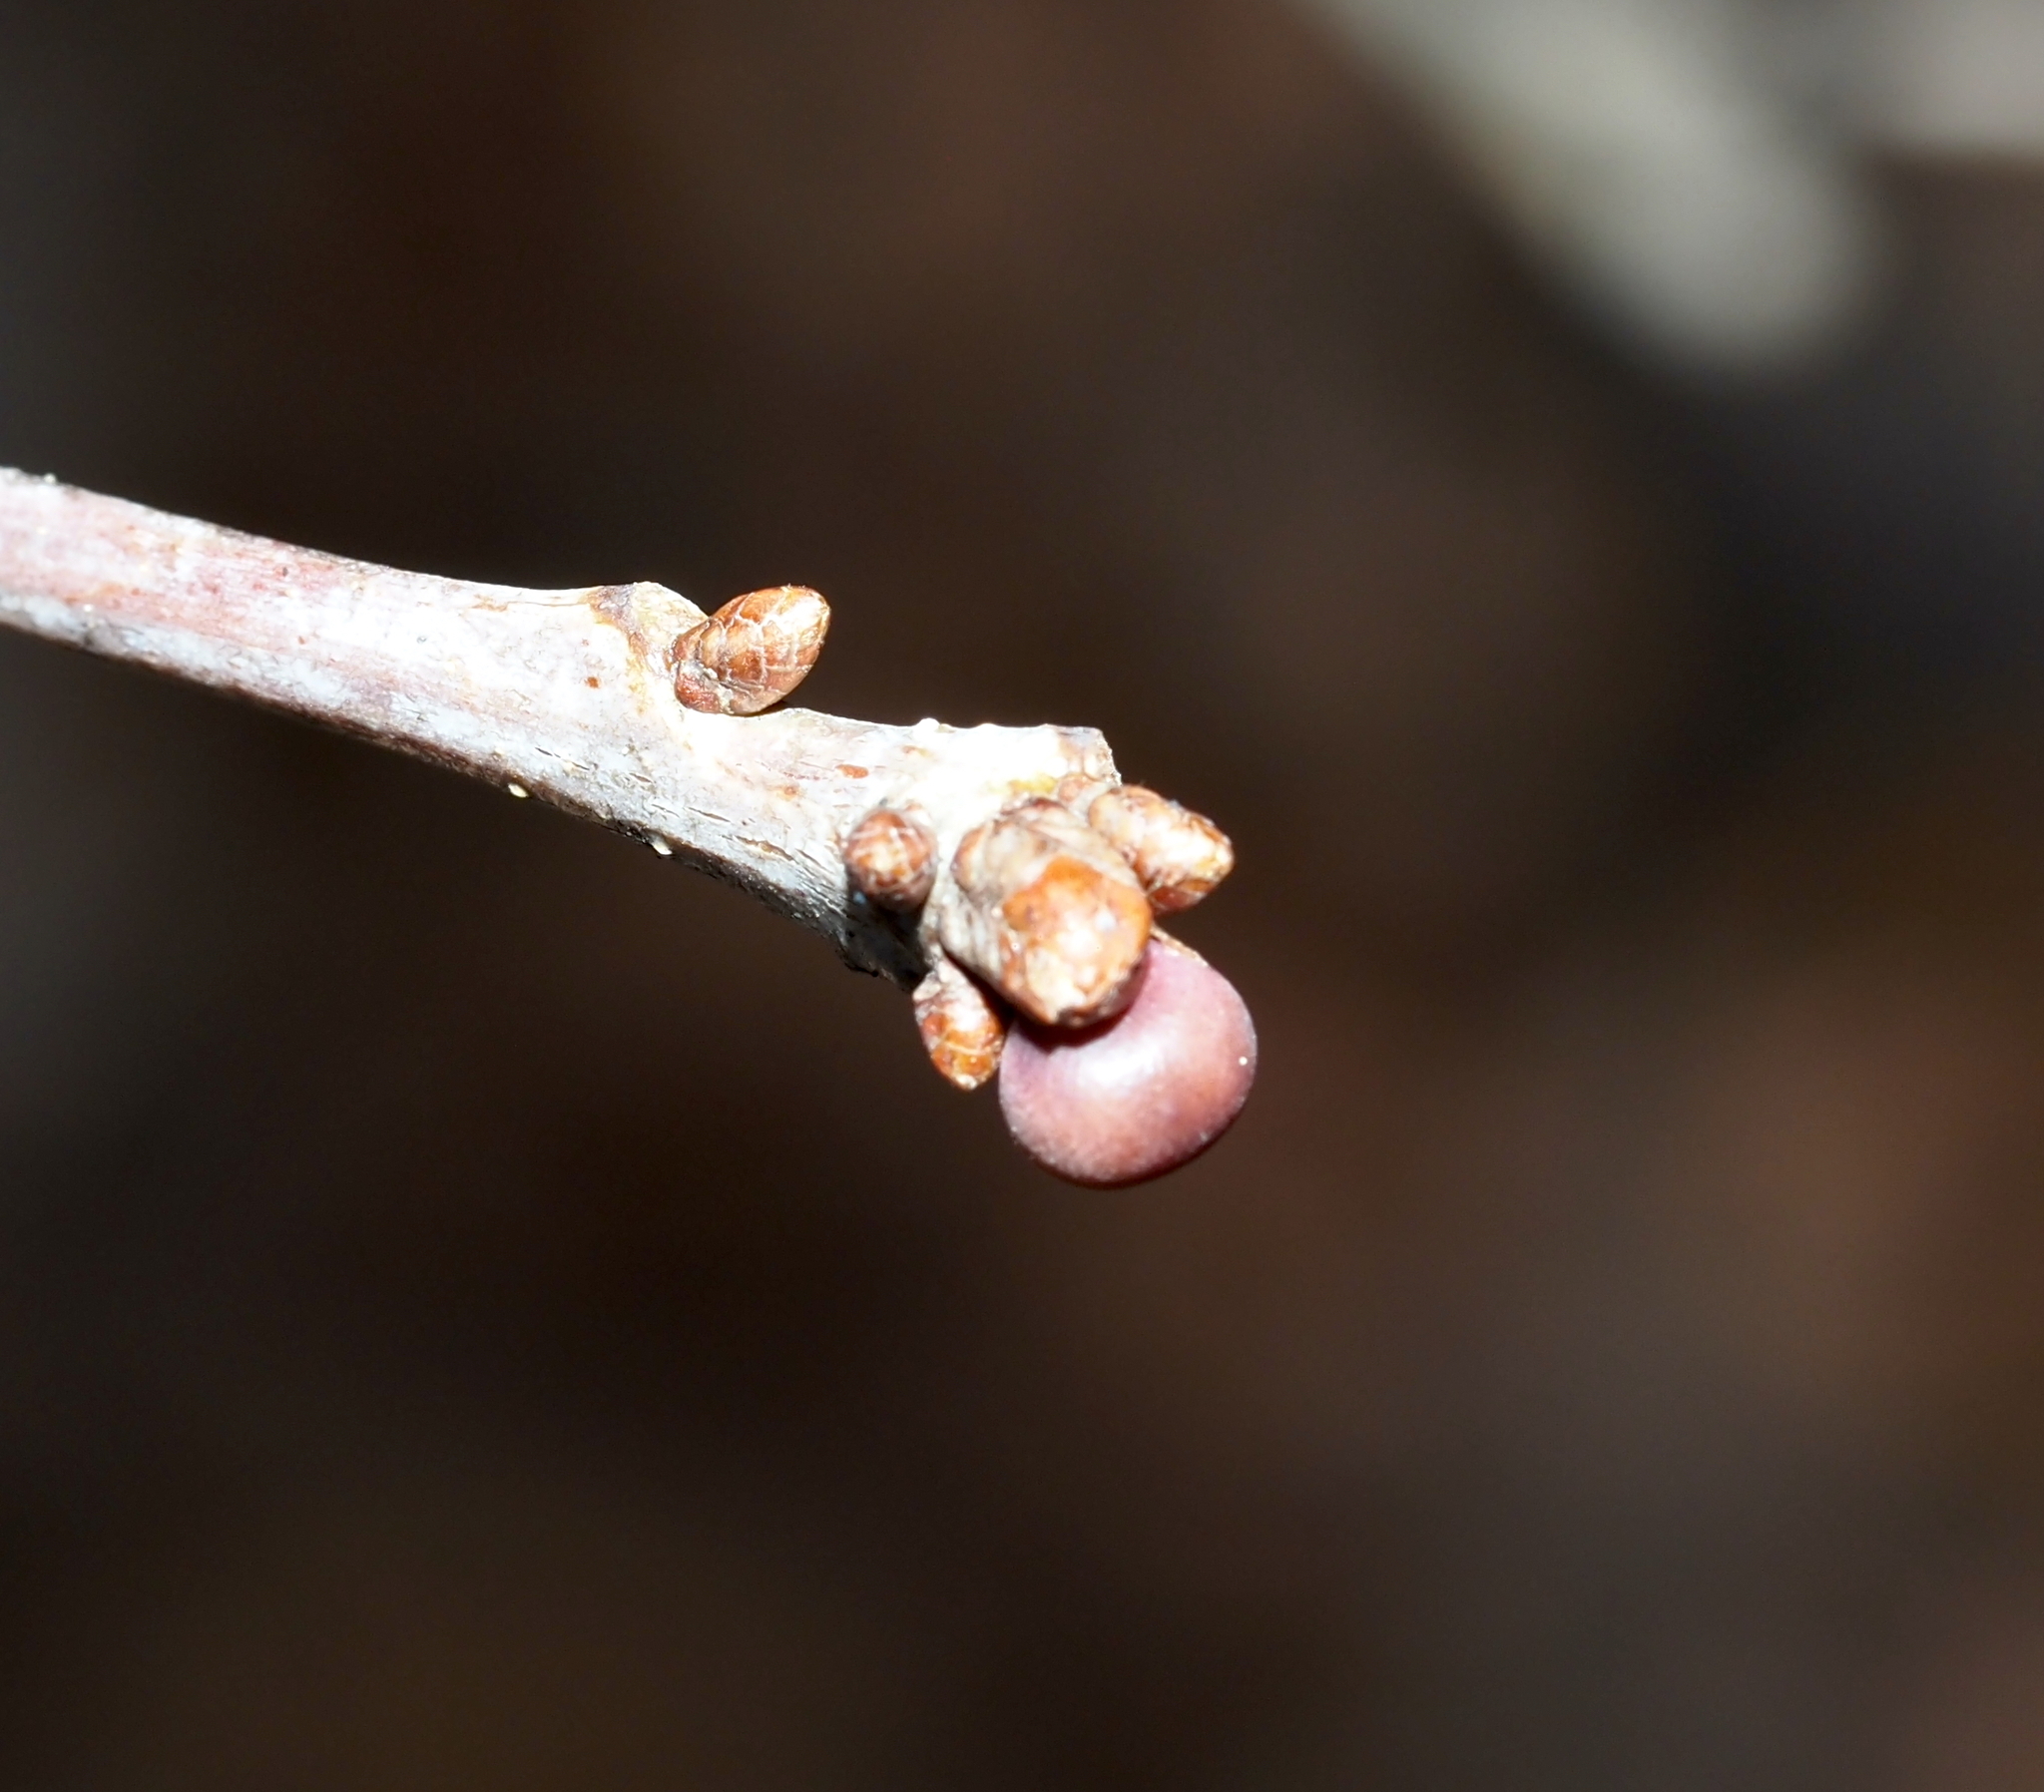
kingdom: Animalia
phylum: Arthropoda
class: Insecta
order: Hymenoptera
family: Cynipidae
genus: Neuroterus
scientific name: Neuroterus
